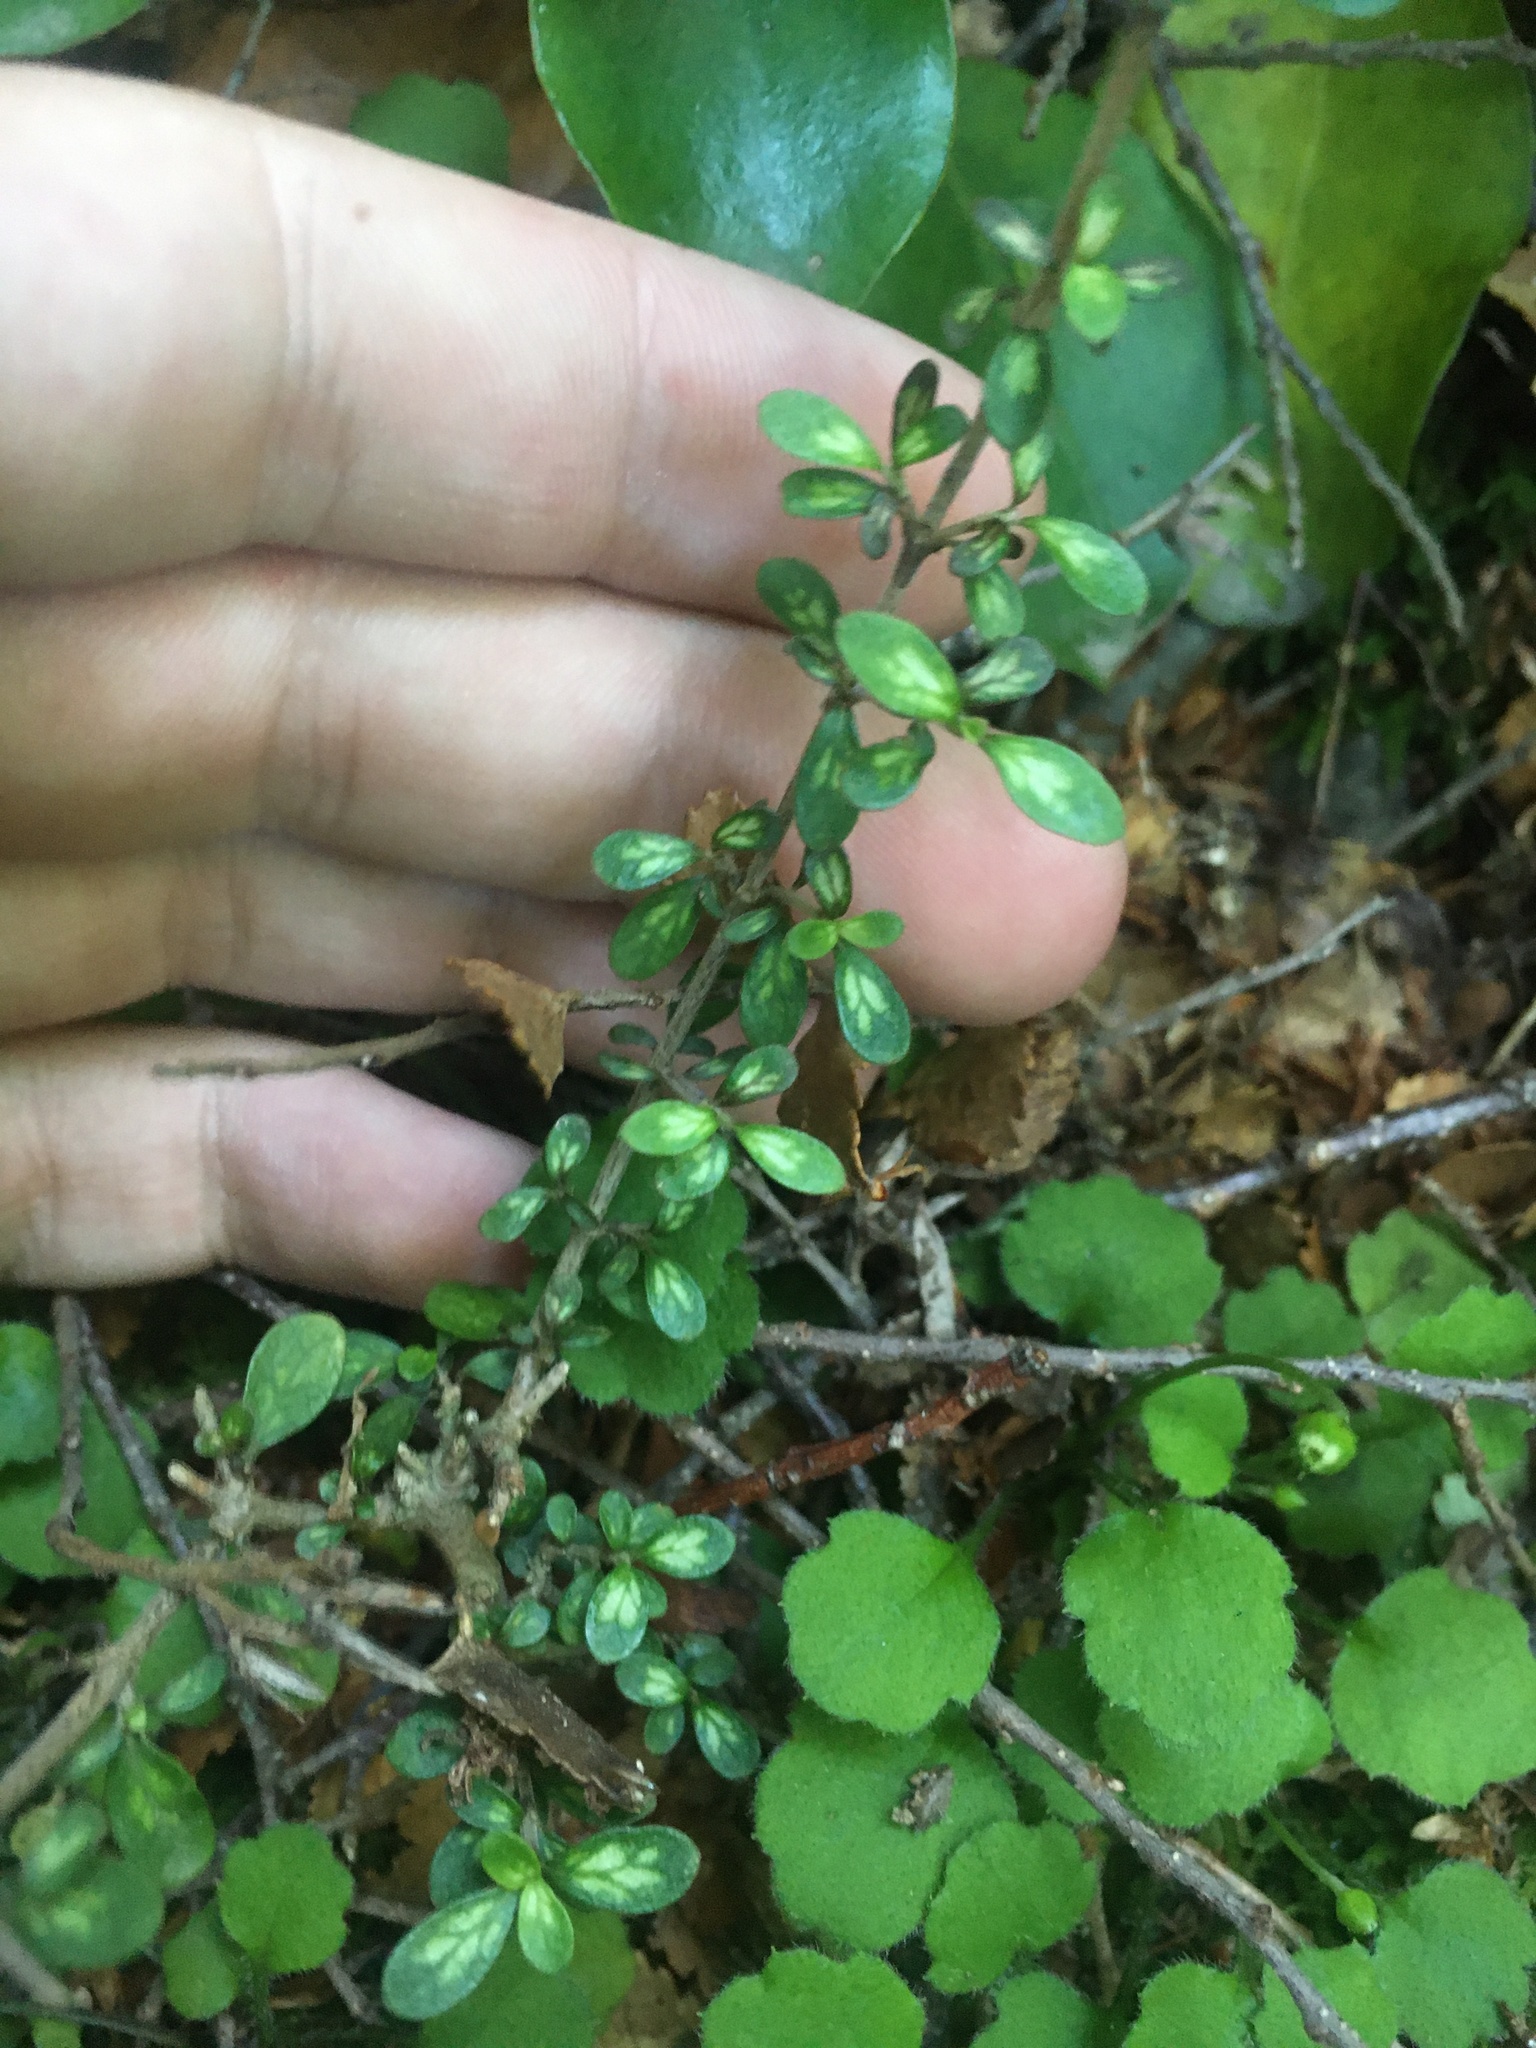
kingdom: Plantae
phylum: Tracheophyta
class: Magnoliopsida
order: Gentianales
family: Rubiaceae
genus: Coprosma
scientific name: Coprosma dumosa
